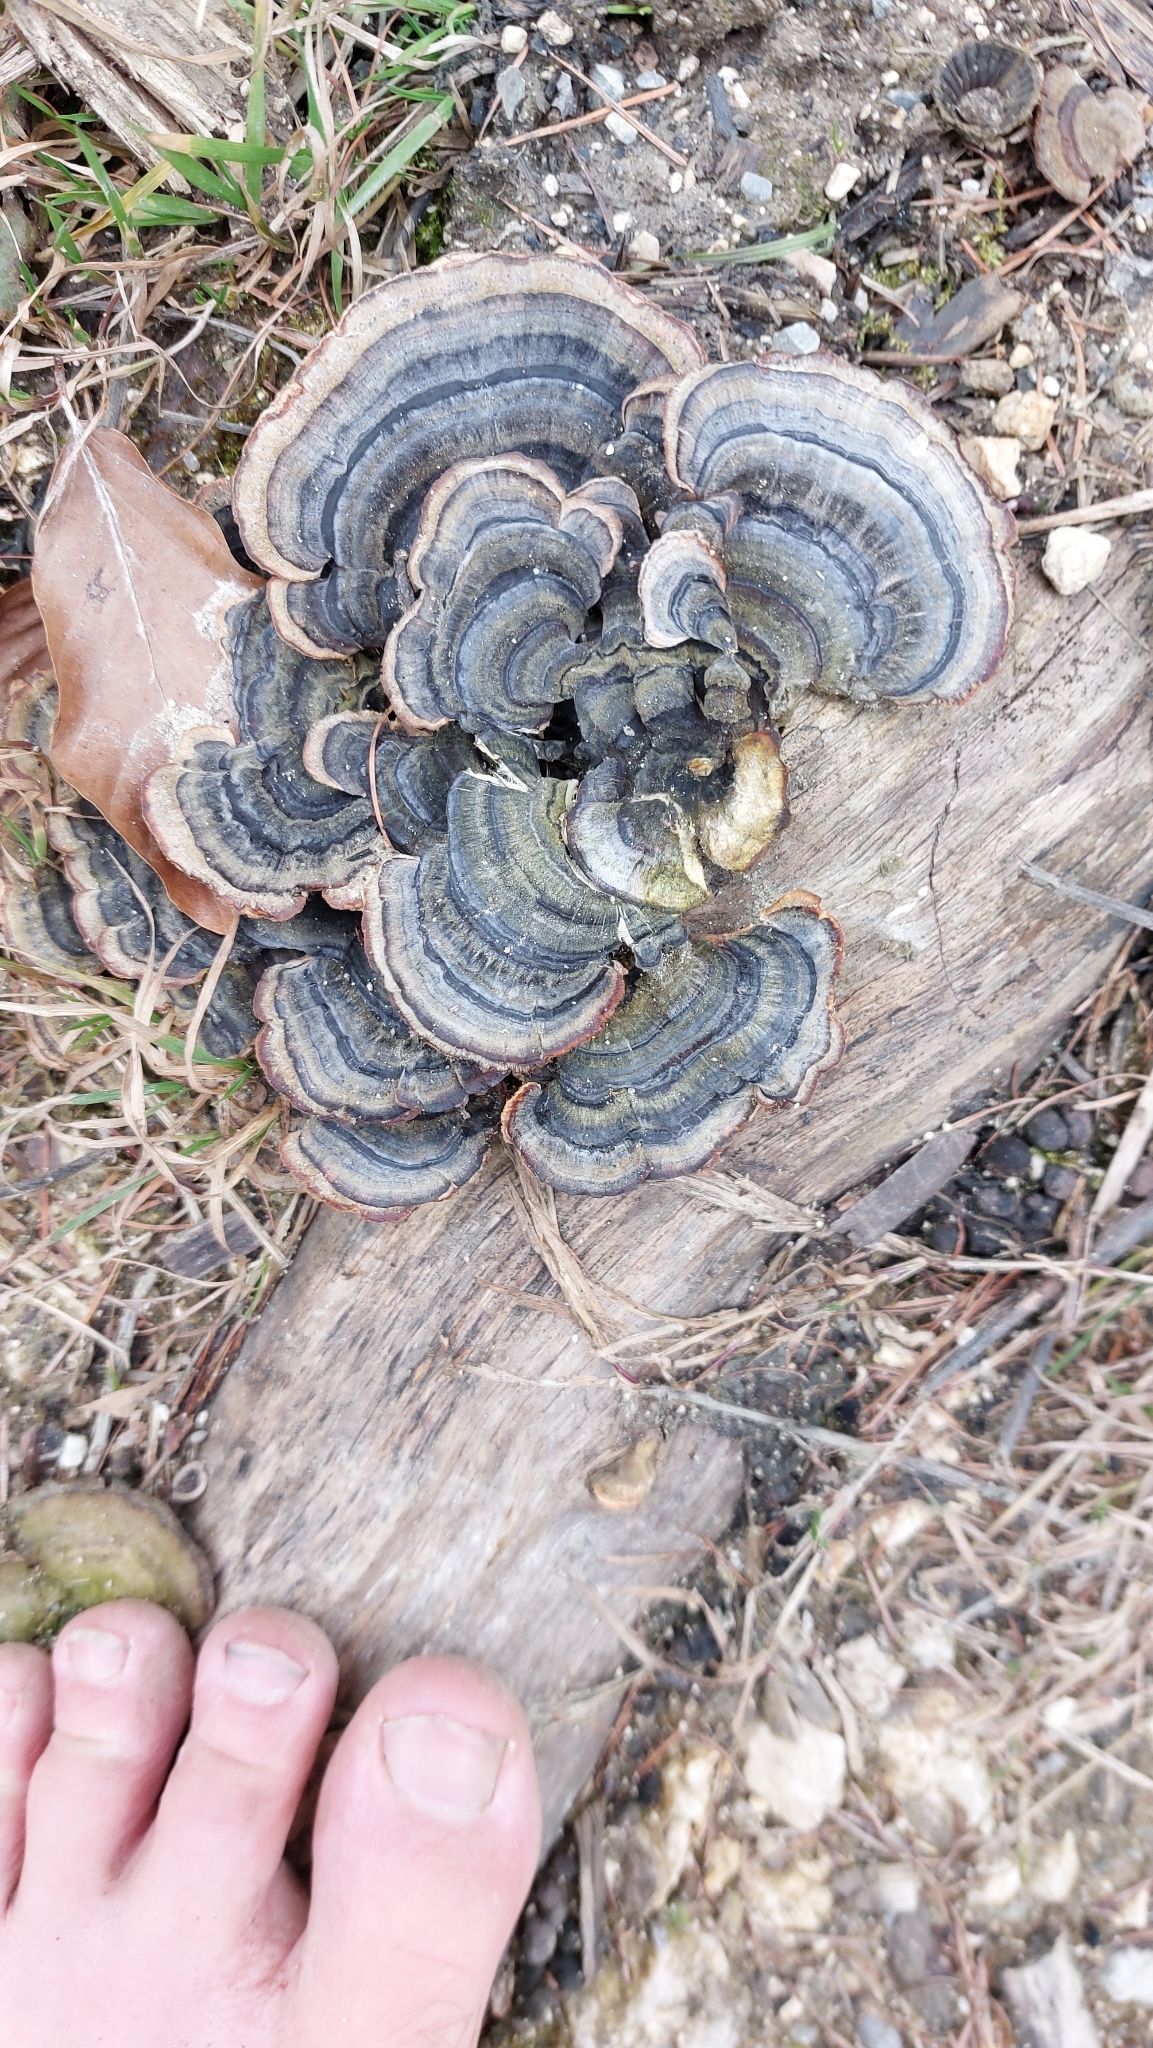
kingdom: Fungi
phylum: Basidiomycota
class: Agaricomycetes
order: Polyporales
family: Polyporaceae
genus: Trametes
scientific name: Trametes versicolor
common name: Turkeytail
